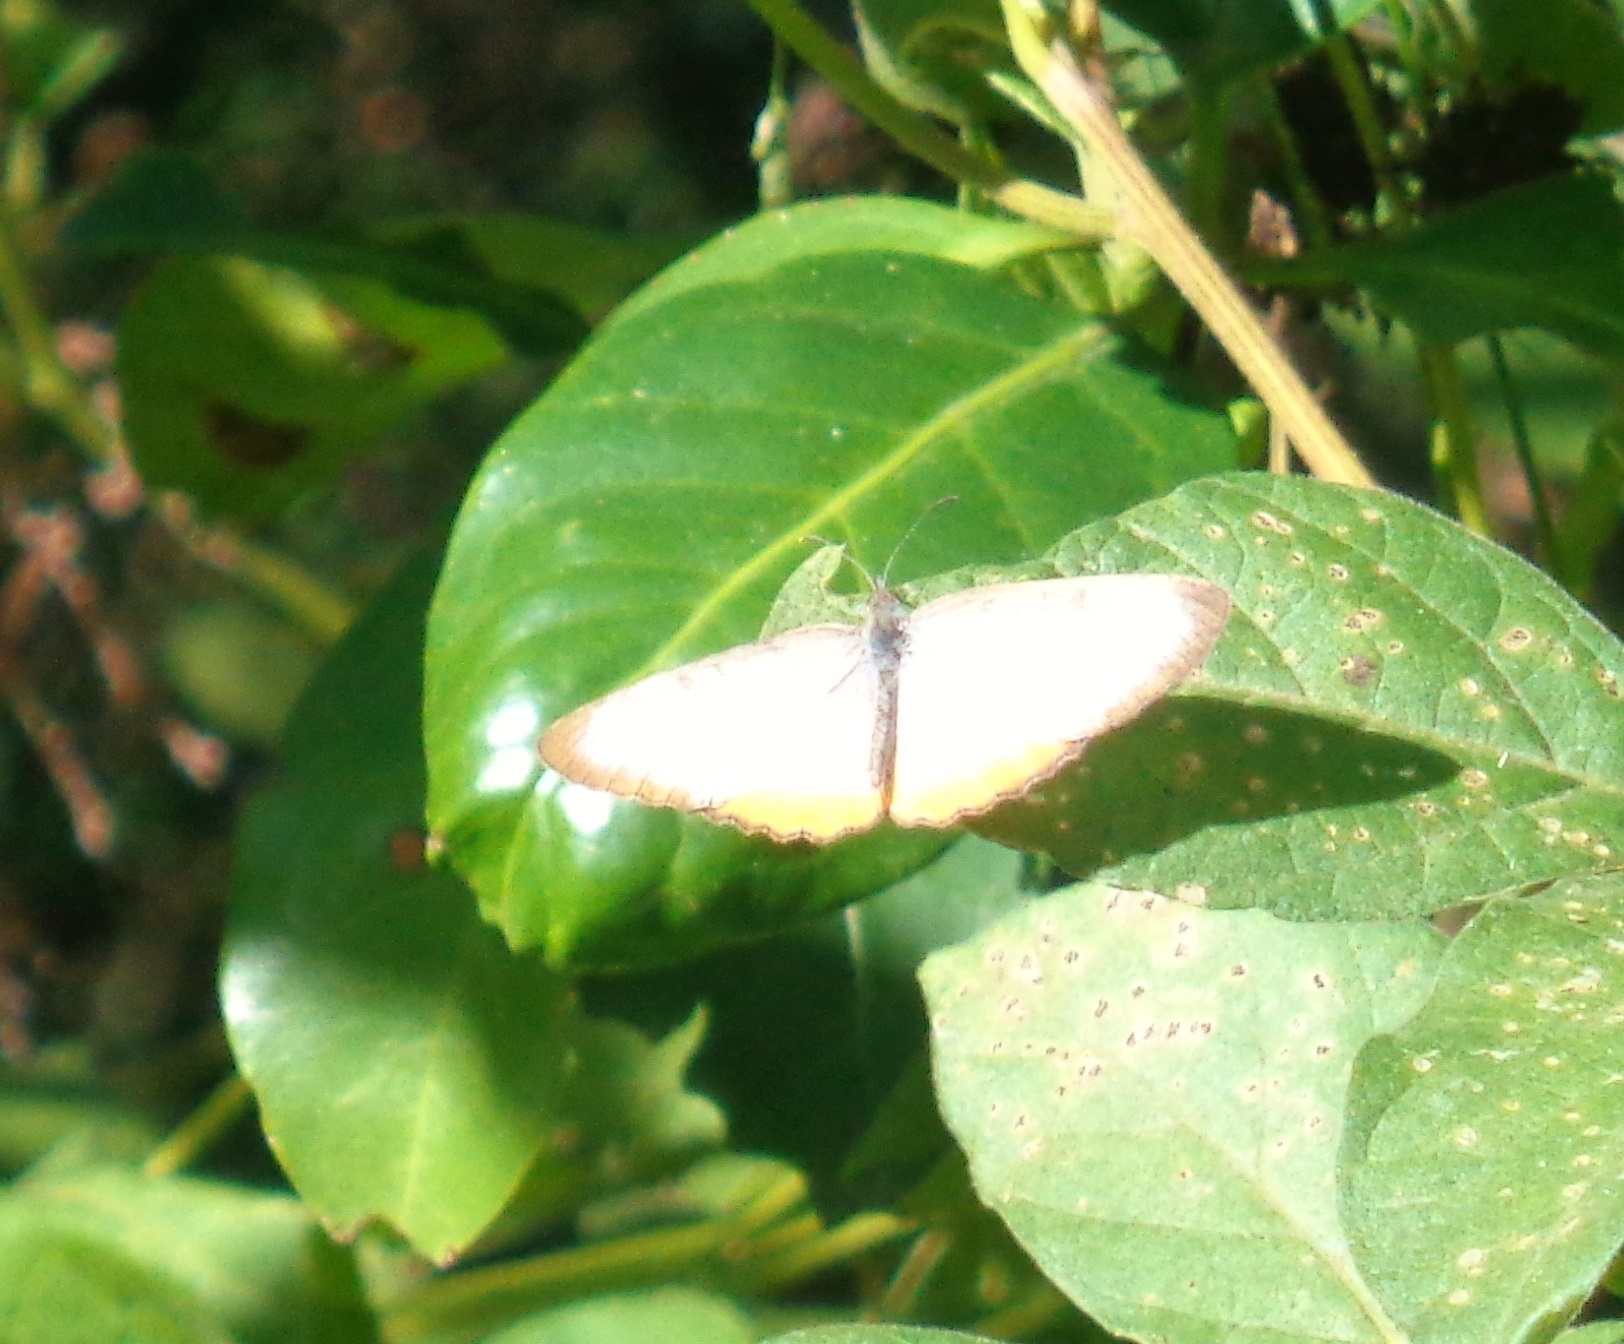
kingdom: Animalia
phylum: Arthropoda
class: Insecta
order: Lepidoptera
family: Nymphalidae
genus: Mestra
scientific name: Mestra amymone
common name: Common mestra
